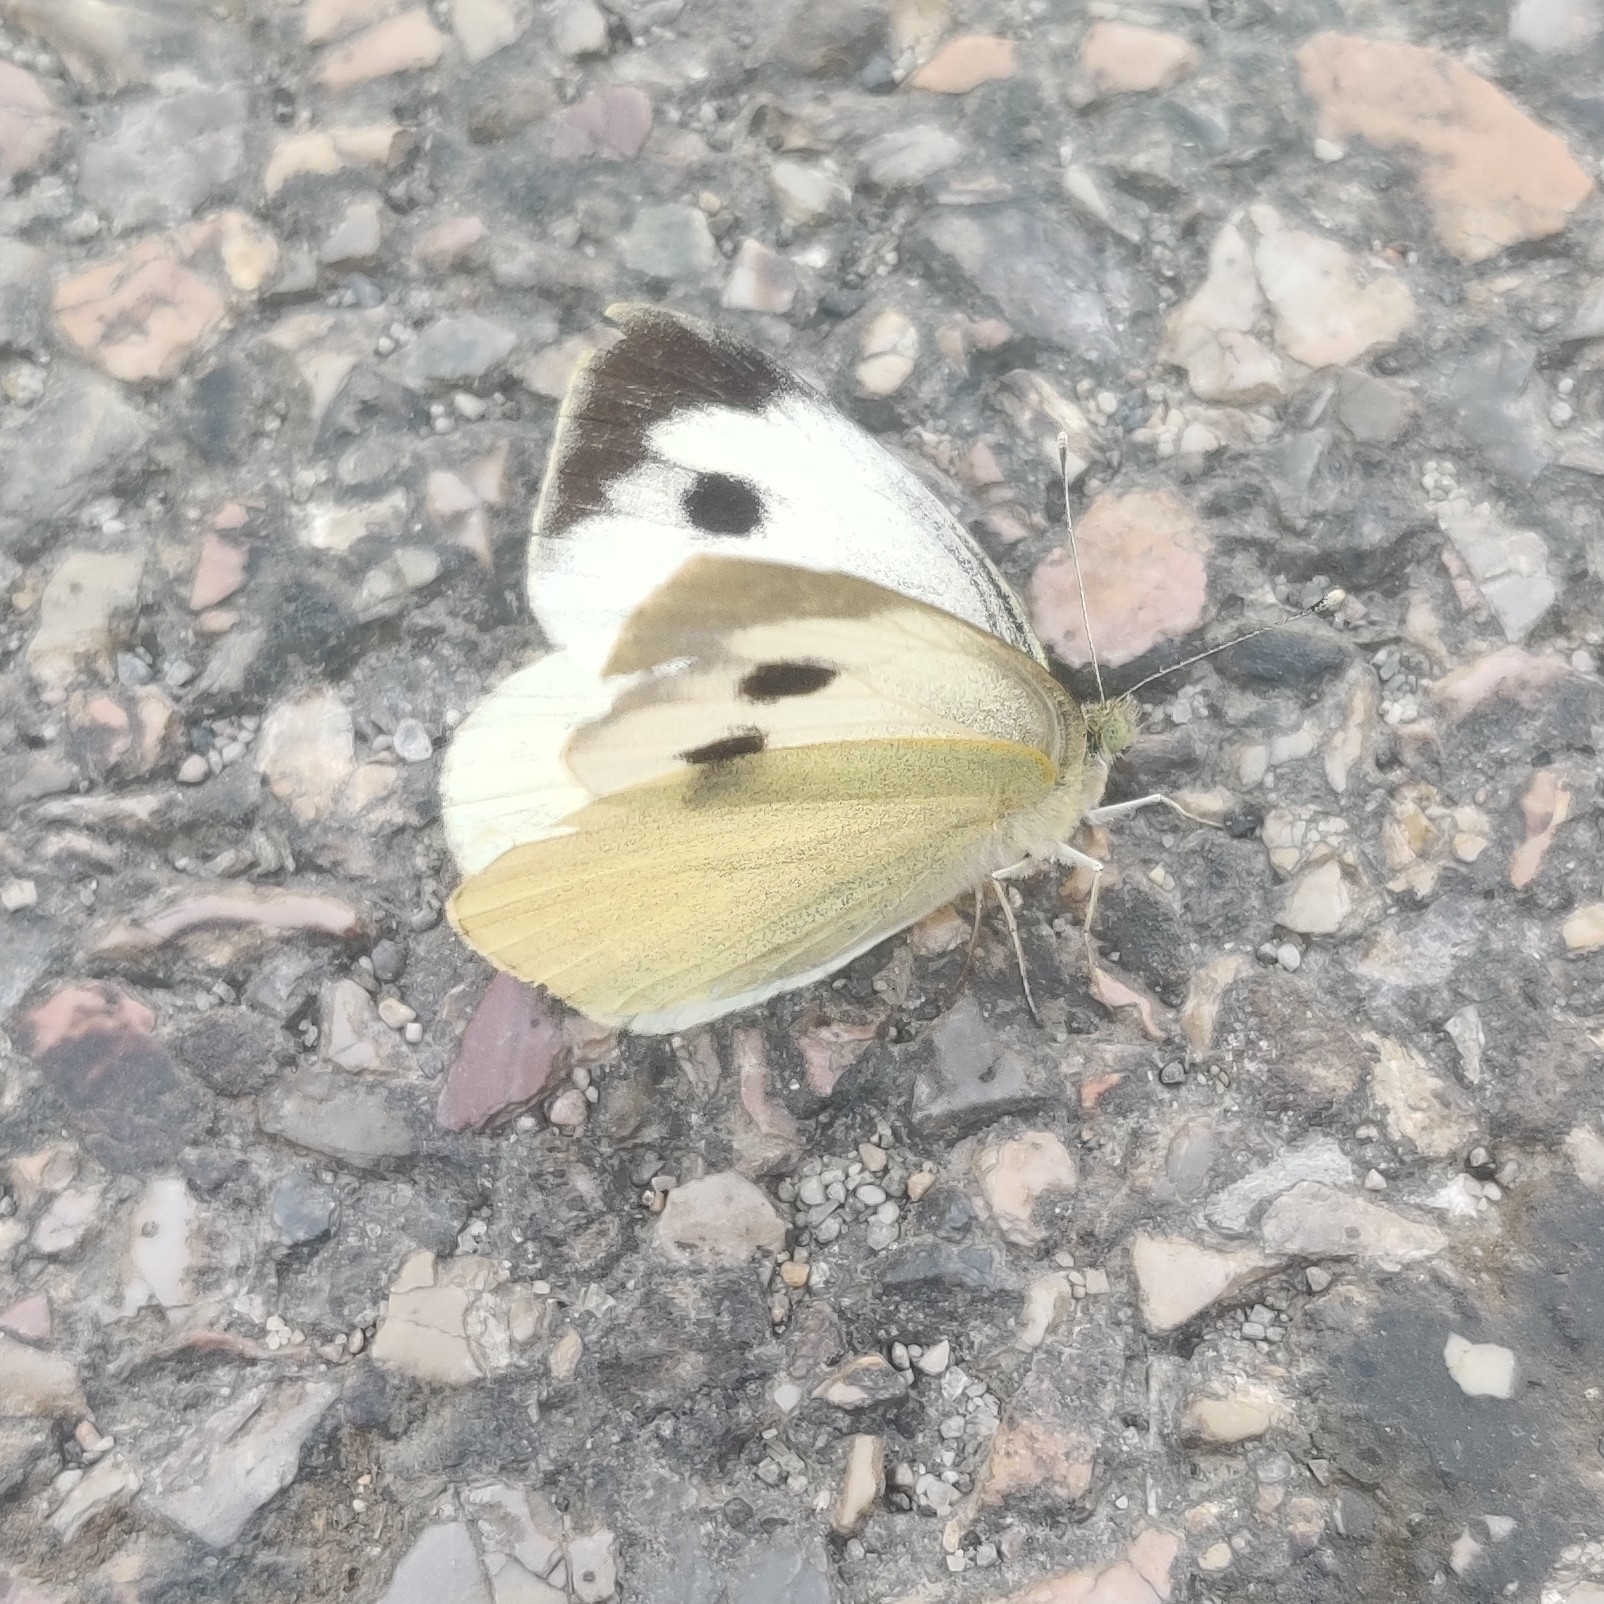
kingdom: Animalia
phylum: Arthropoda
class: Insecta
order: Lepidoptera
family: Pieridae
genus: Pieris
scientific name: Pieris brassicae
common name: Large white
